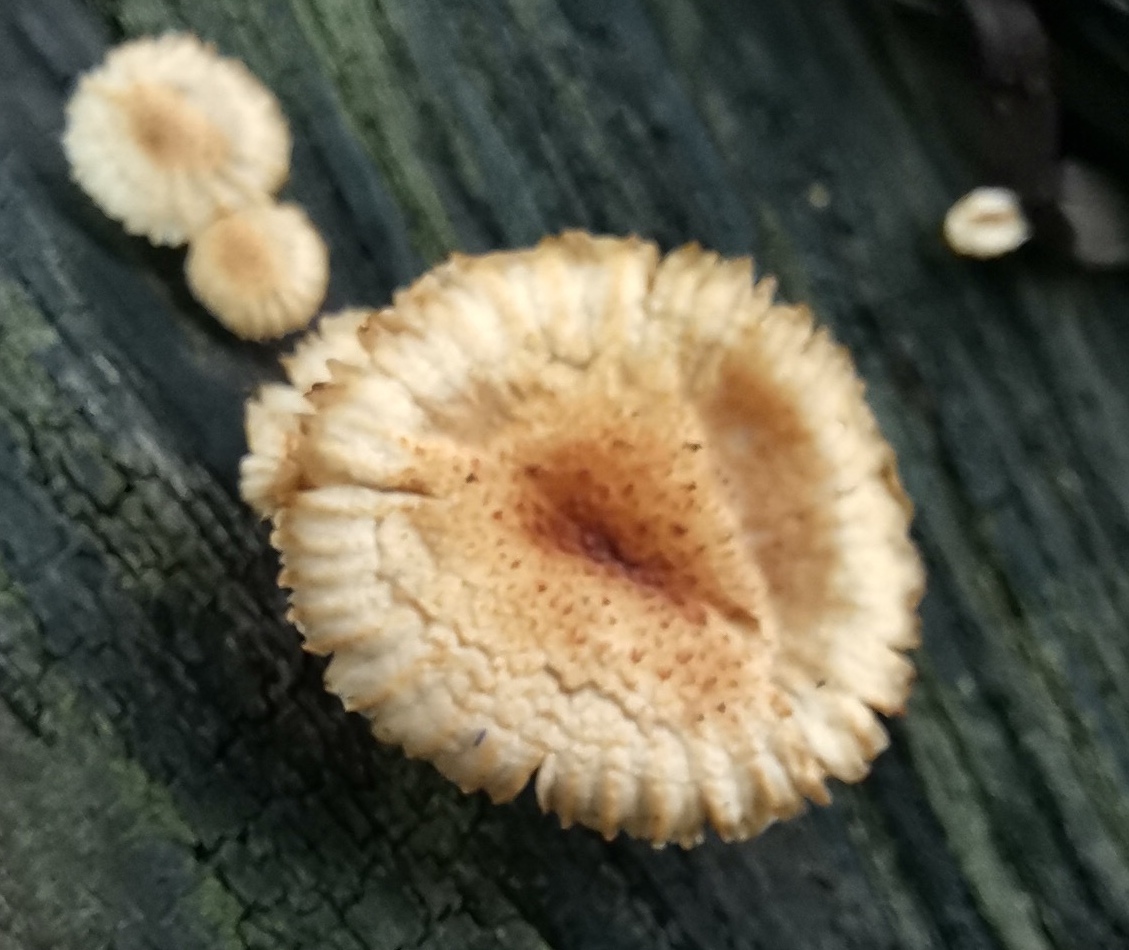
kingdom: Fungi
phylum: Basidiomycota
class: Agaricomycetes
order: Gloeophyllales
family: Gloeophyllaceae
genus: Heliocybe
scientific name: Heliocybe sulcata
